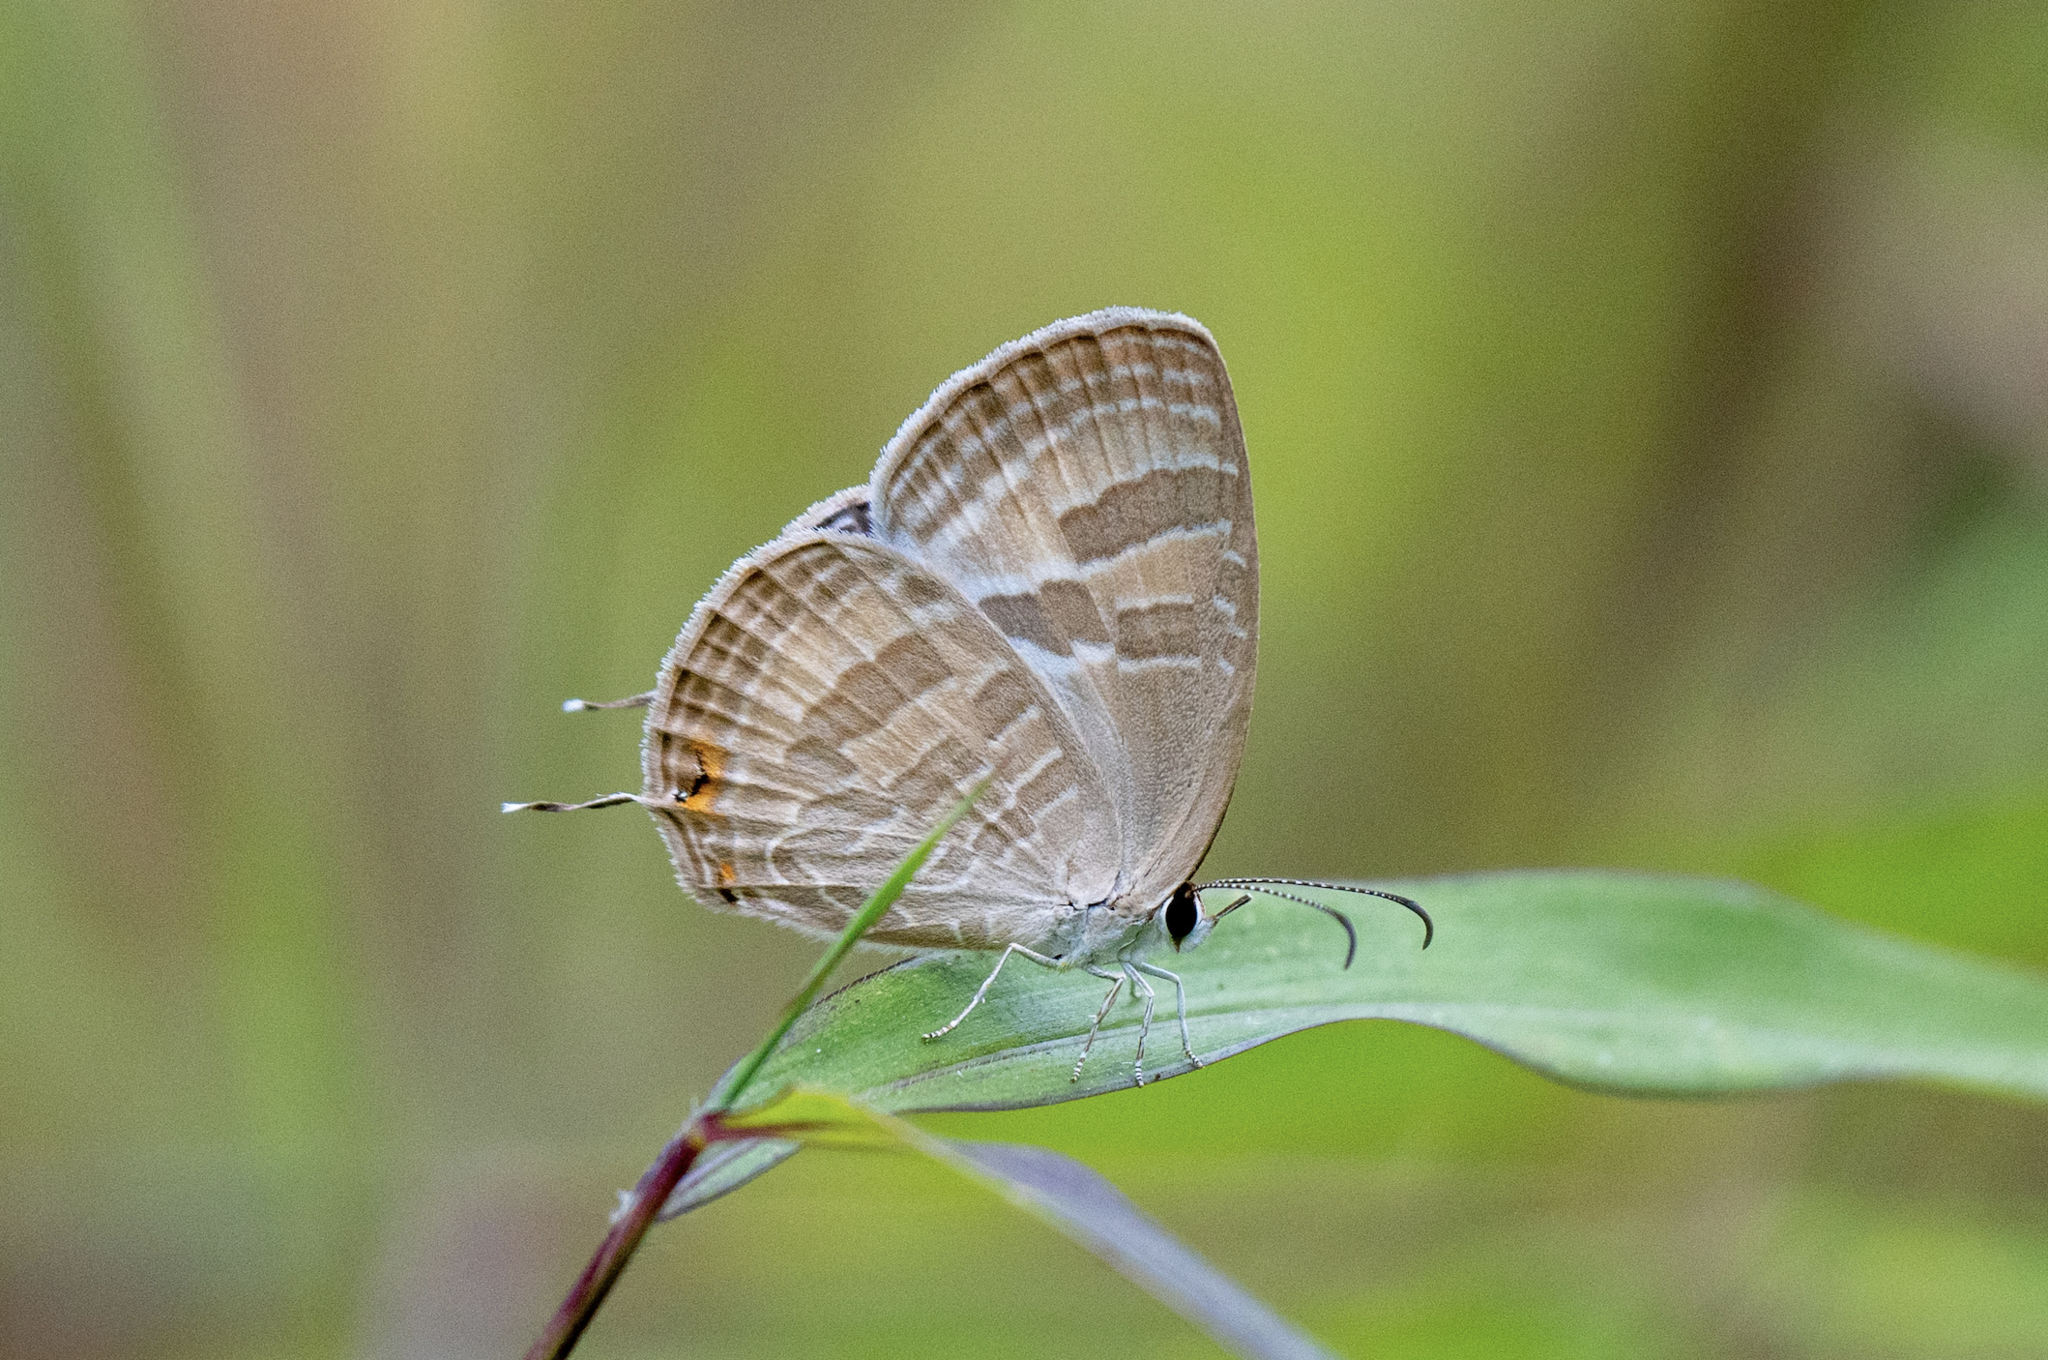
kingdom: Animalia
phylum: Arthropoda
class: Insecta
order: Lepidoptera
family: Lycaenidae
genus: Jamides
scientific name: Jamides celeno
